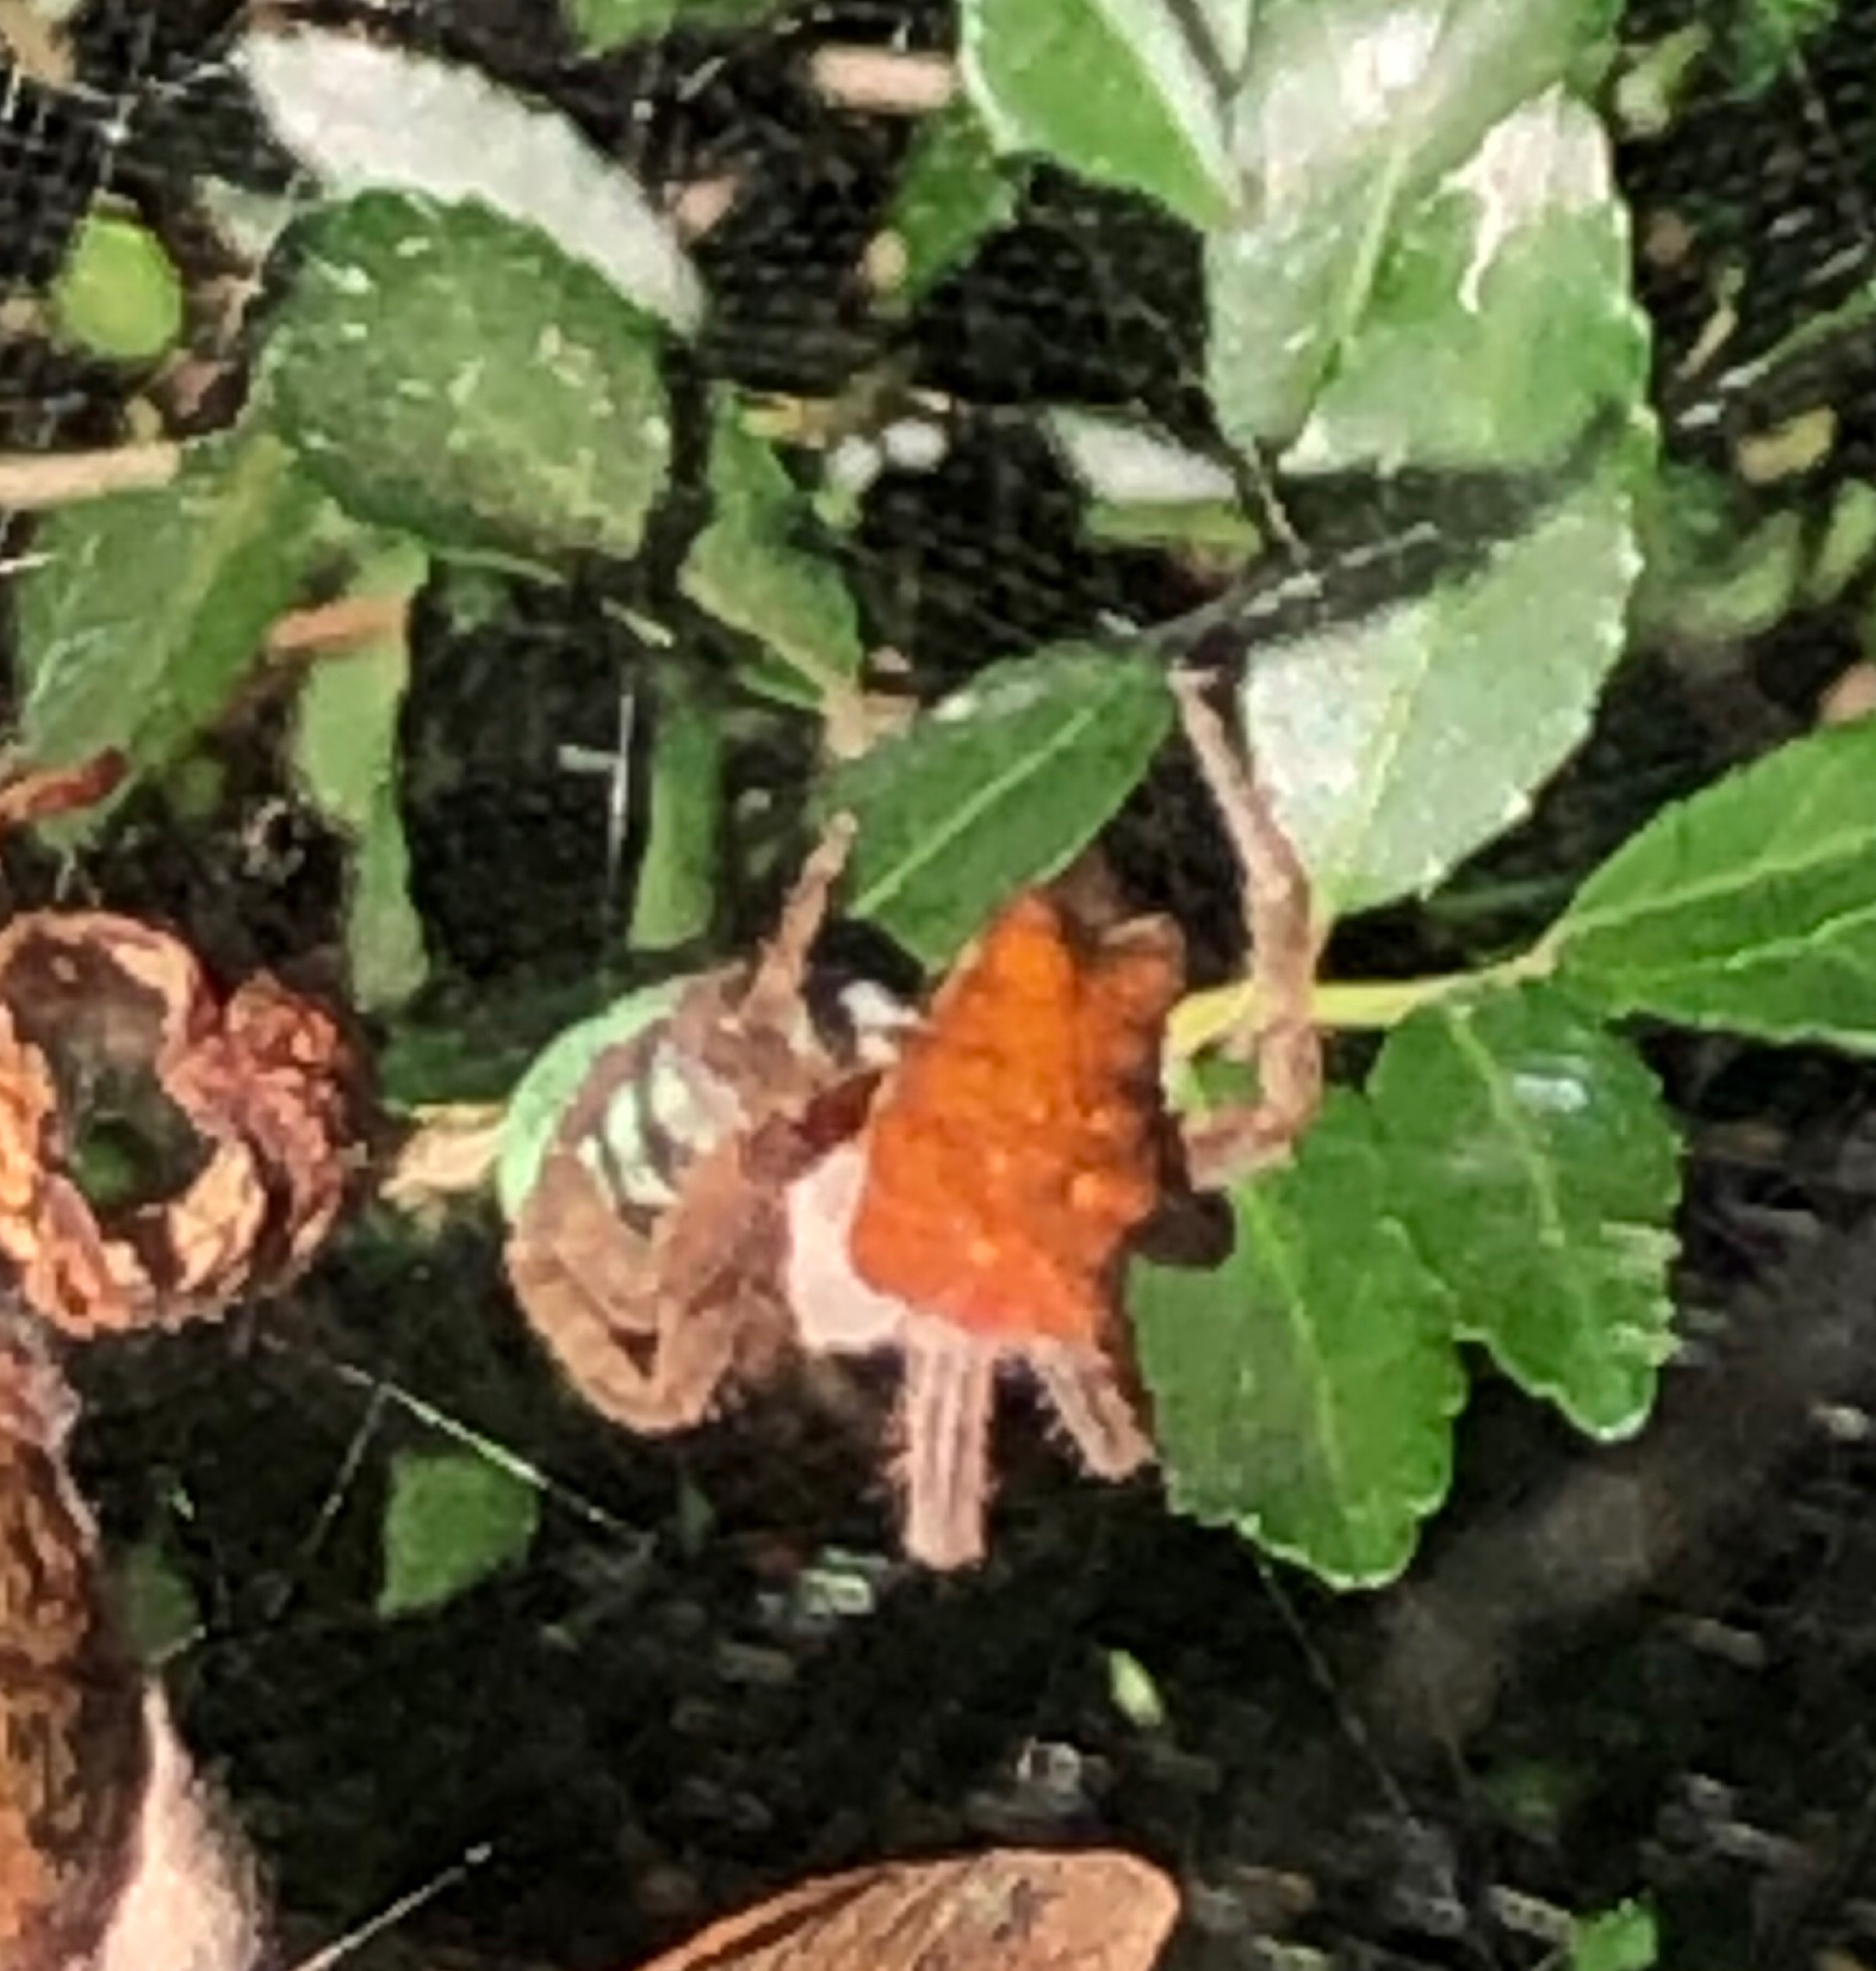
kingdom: Animalia
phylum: Arthropoda
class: Arachnida
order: Araneae
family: Araneidae
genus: Cyrtophora
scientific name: Cyrtophora citricola
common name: Orb weavers
